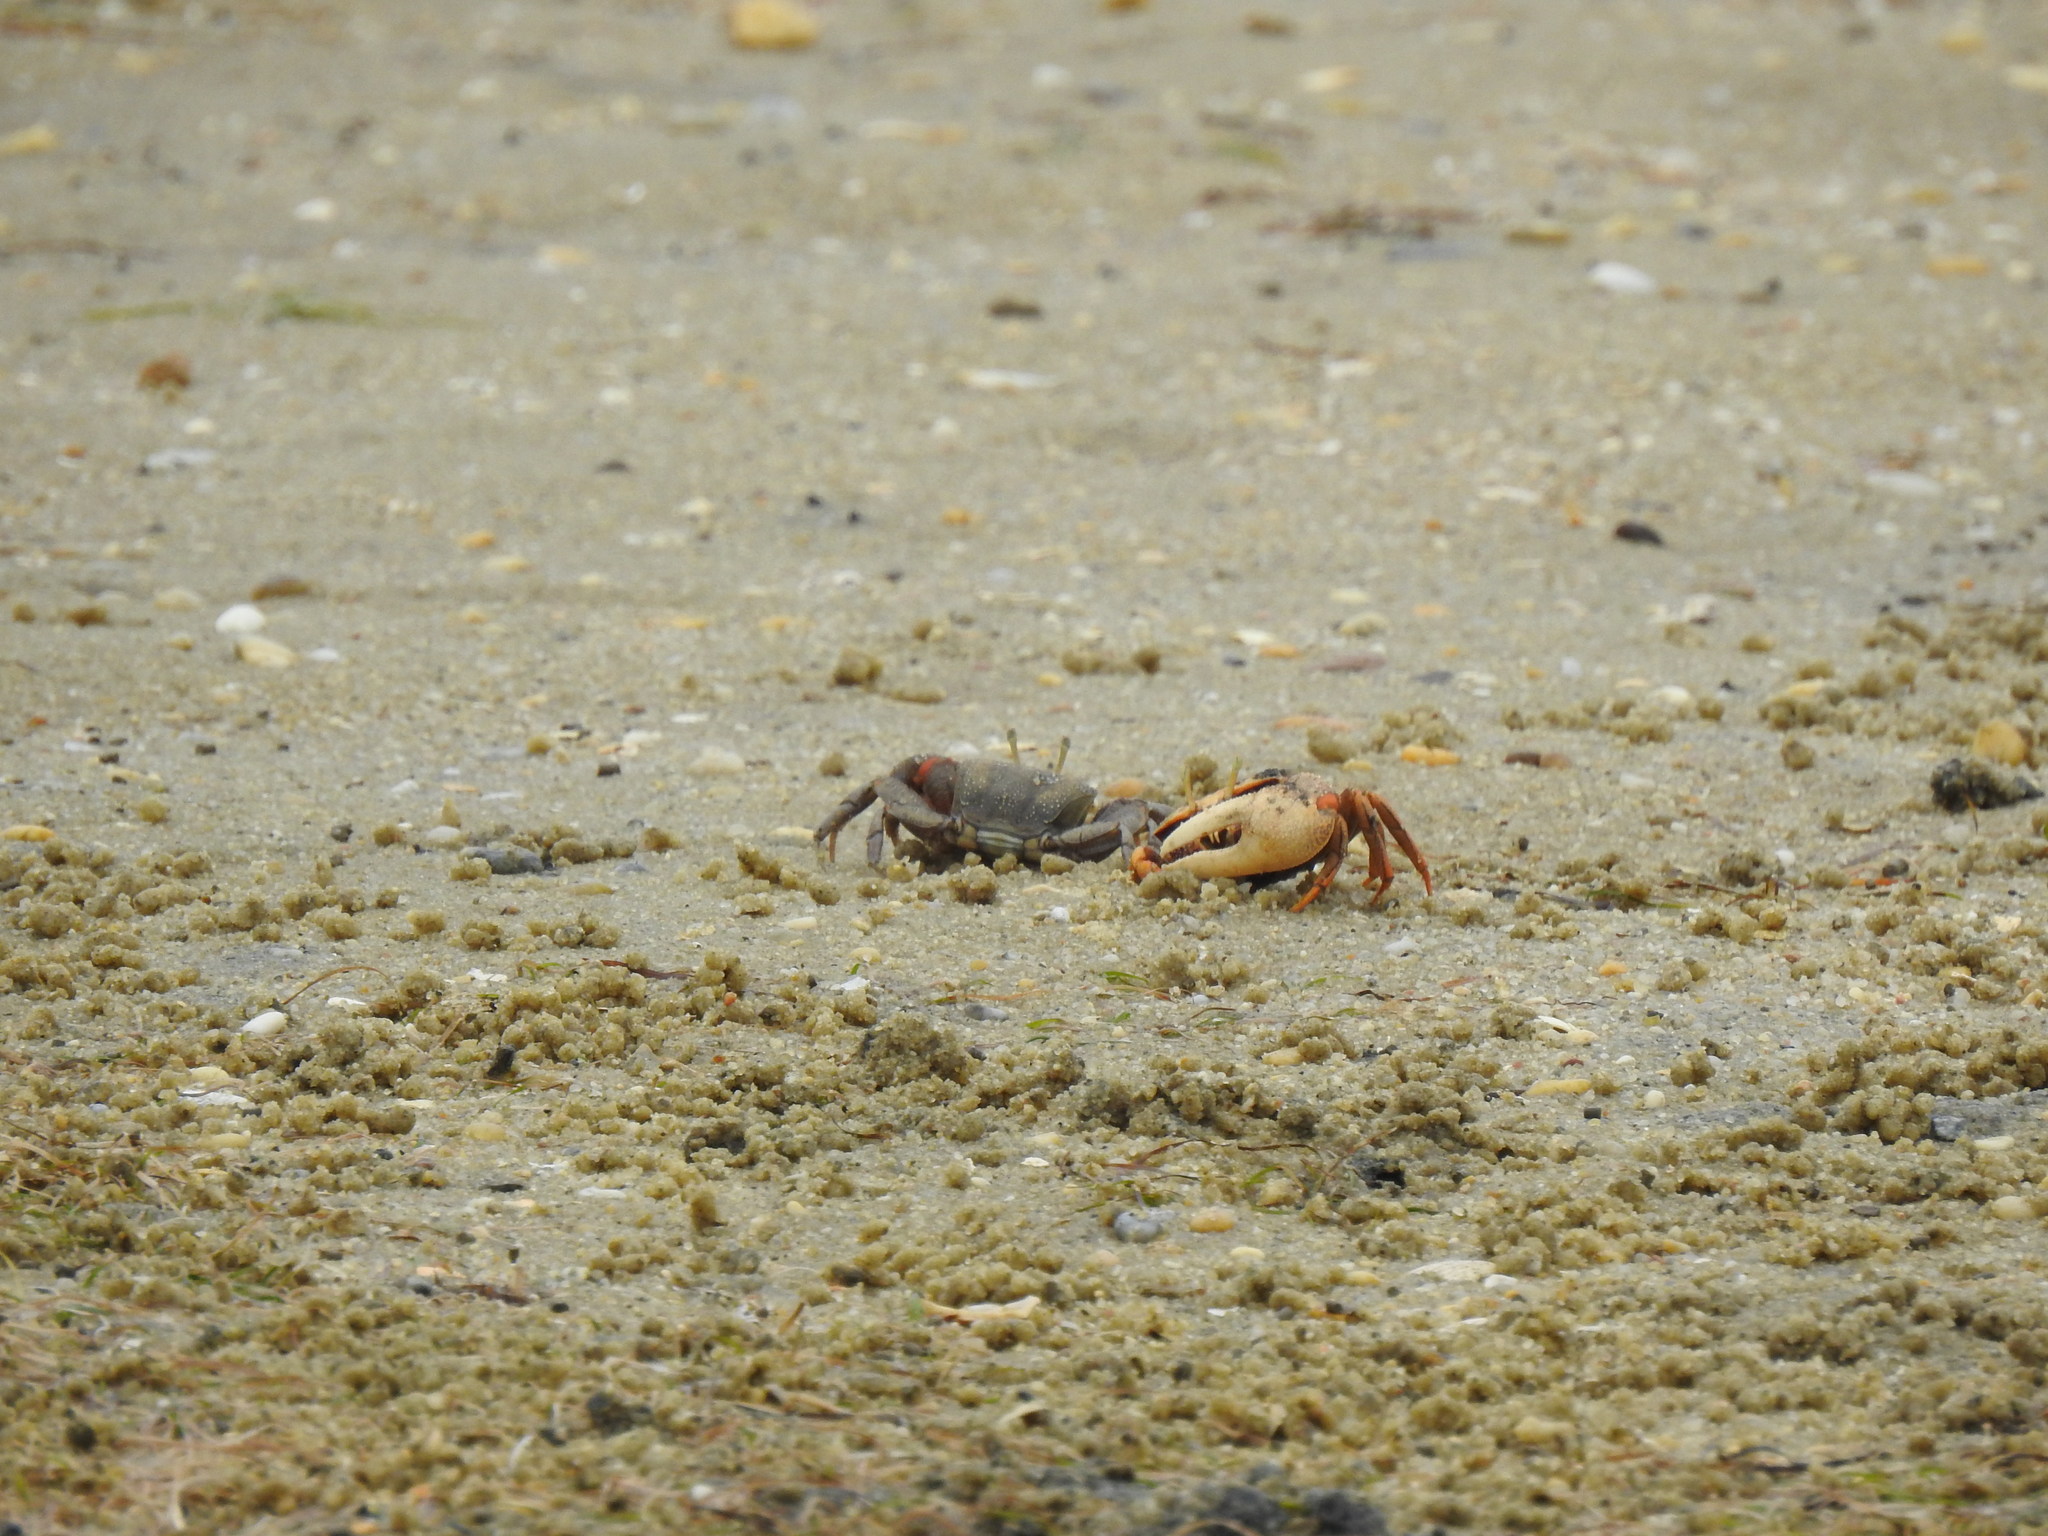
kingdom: Animalia
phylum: Arthropoda
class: Malacostraca
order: Decapoda
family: Ocypodidae
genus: Afruca
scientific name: Afruca tangeri
